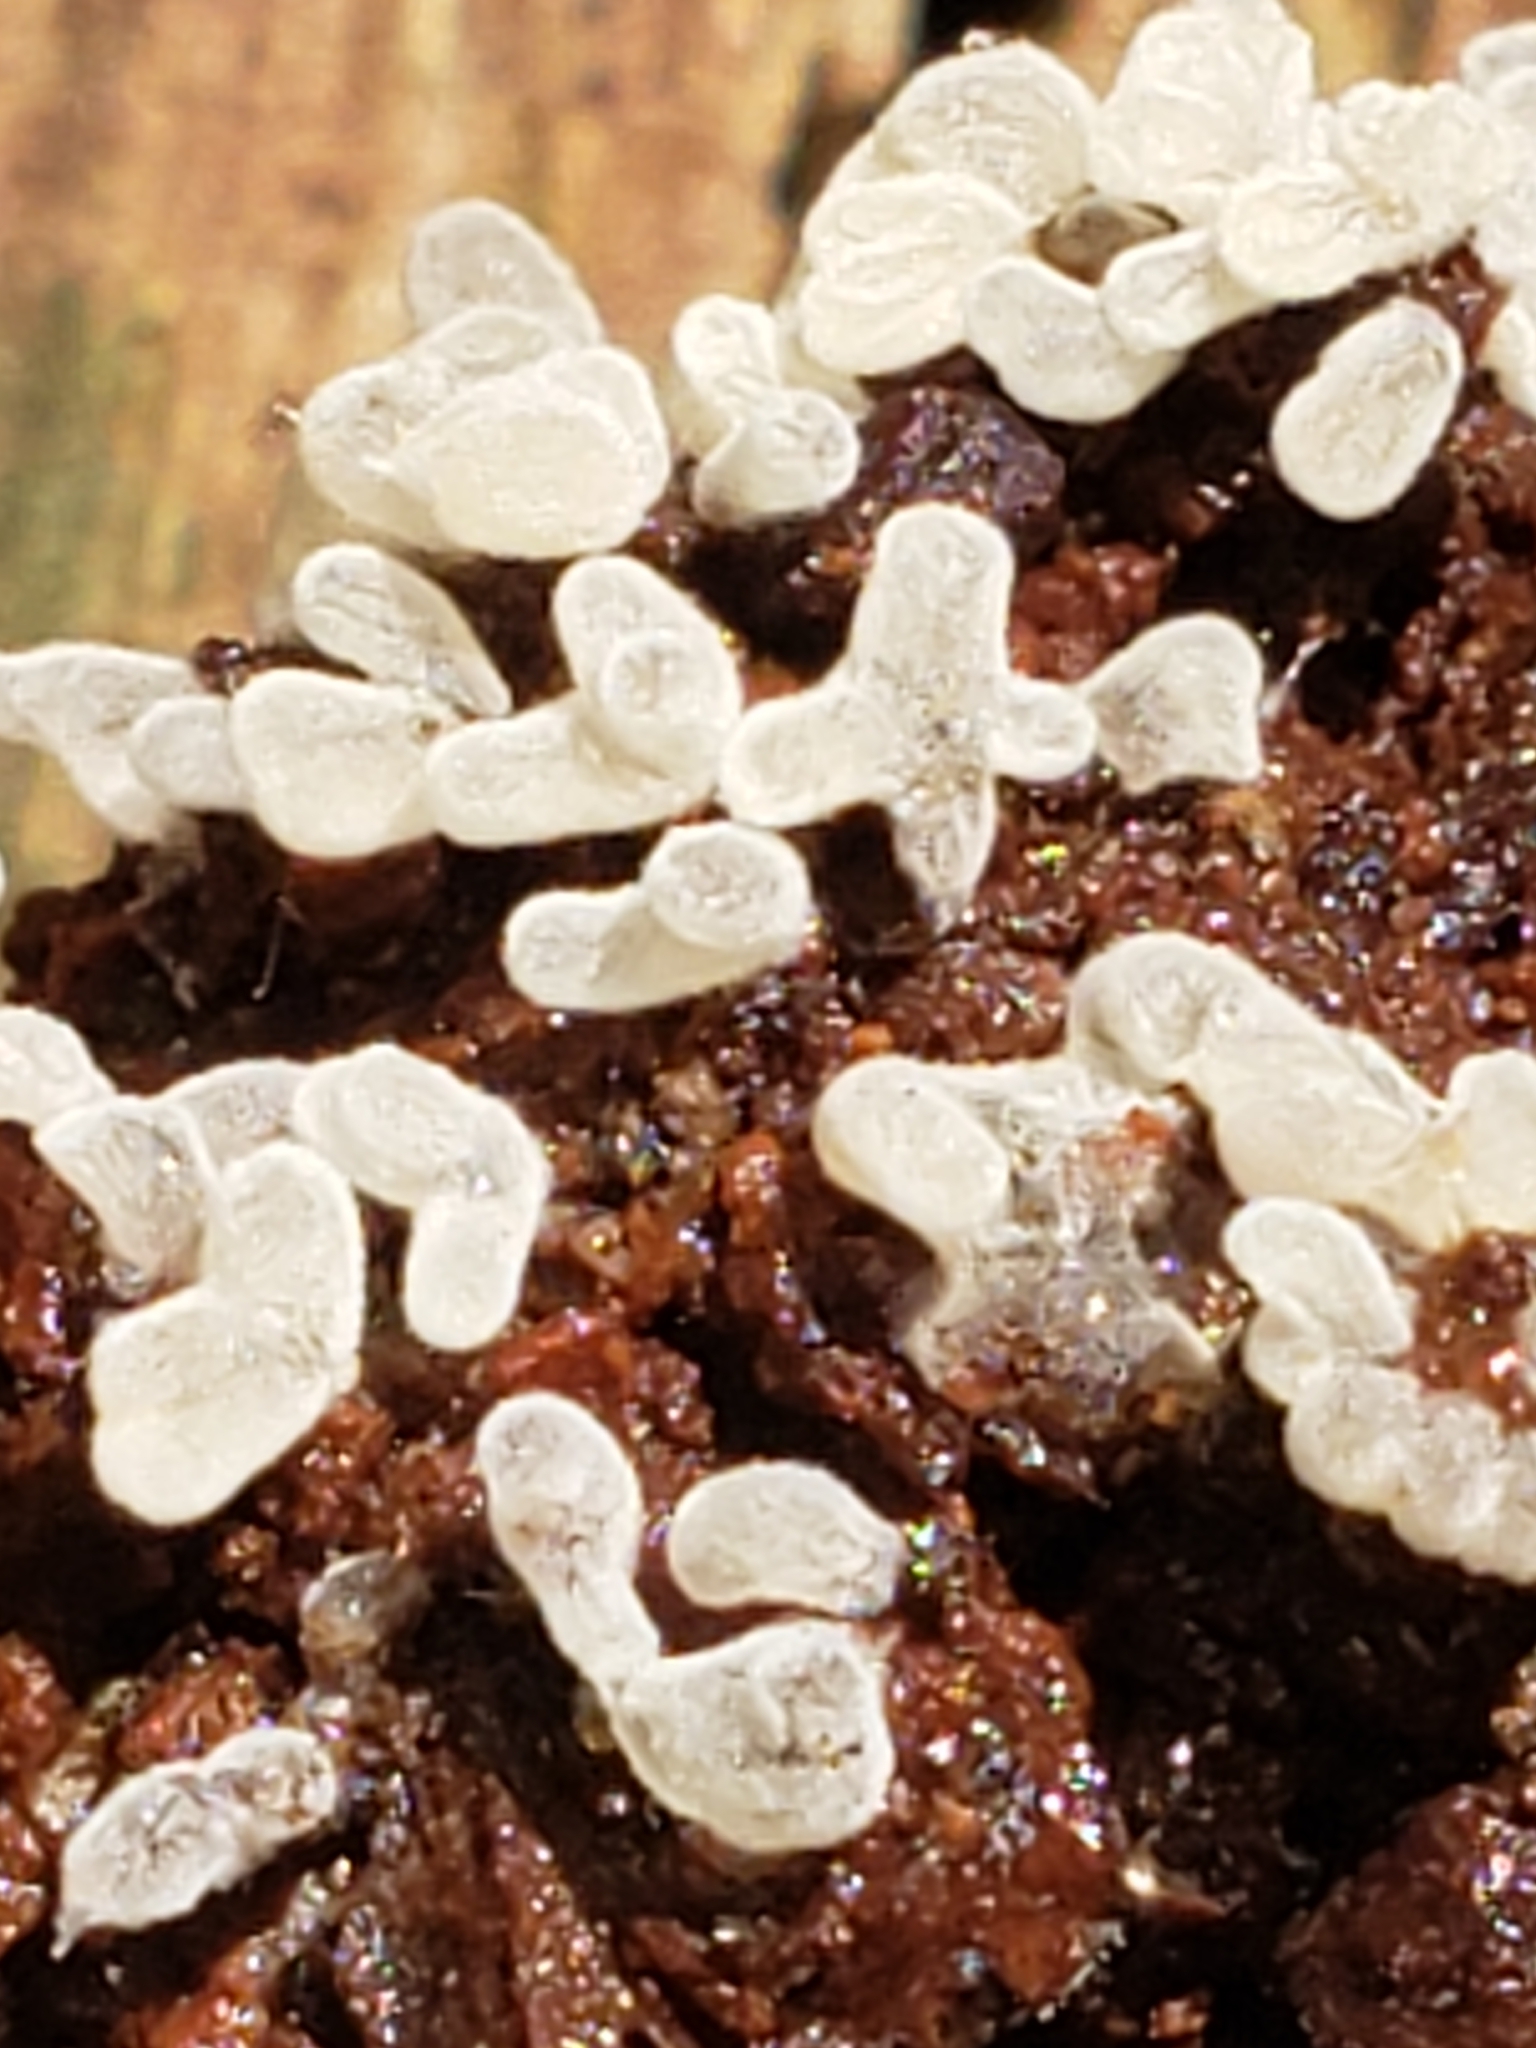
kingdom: Protozoa
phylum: Mycetozoa
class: Protosteliomycetes
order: Ceratiomyxales
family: Ceratiomyxaceae
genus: Ceratiomyxa
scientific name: Ceratiomyxa fruticulosa
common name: Honeycomb coral slime mold
